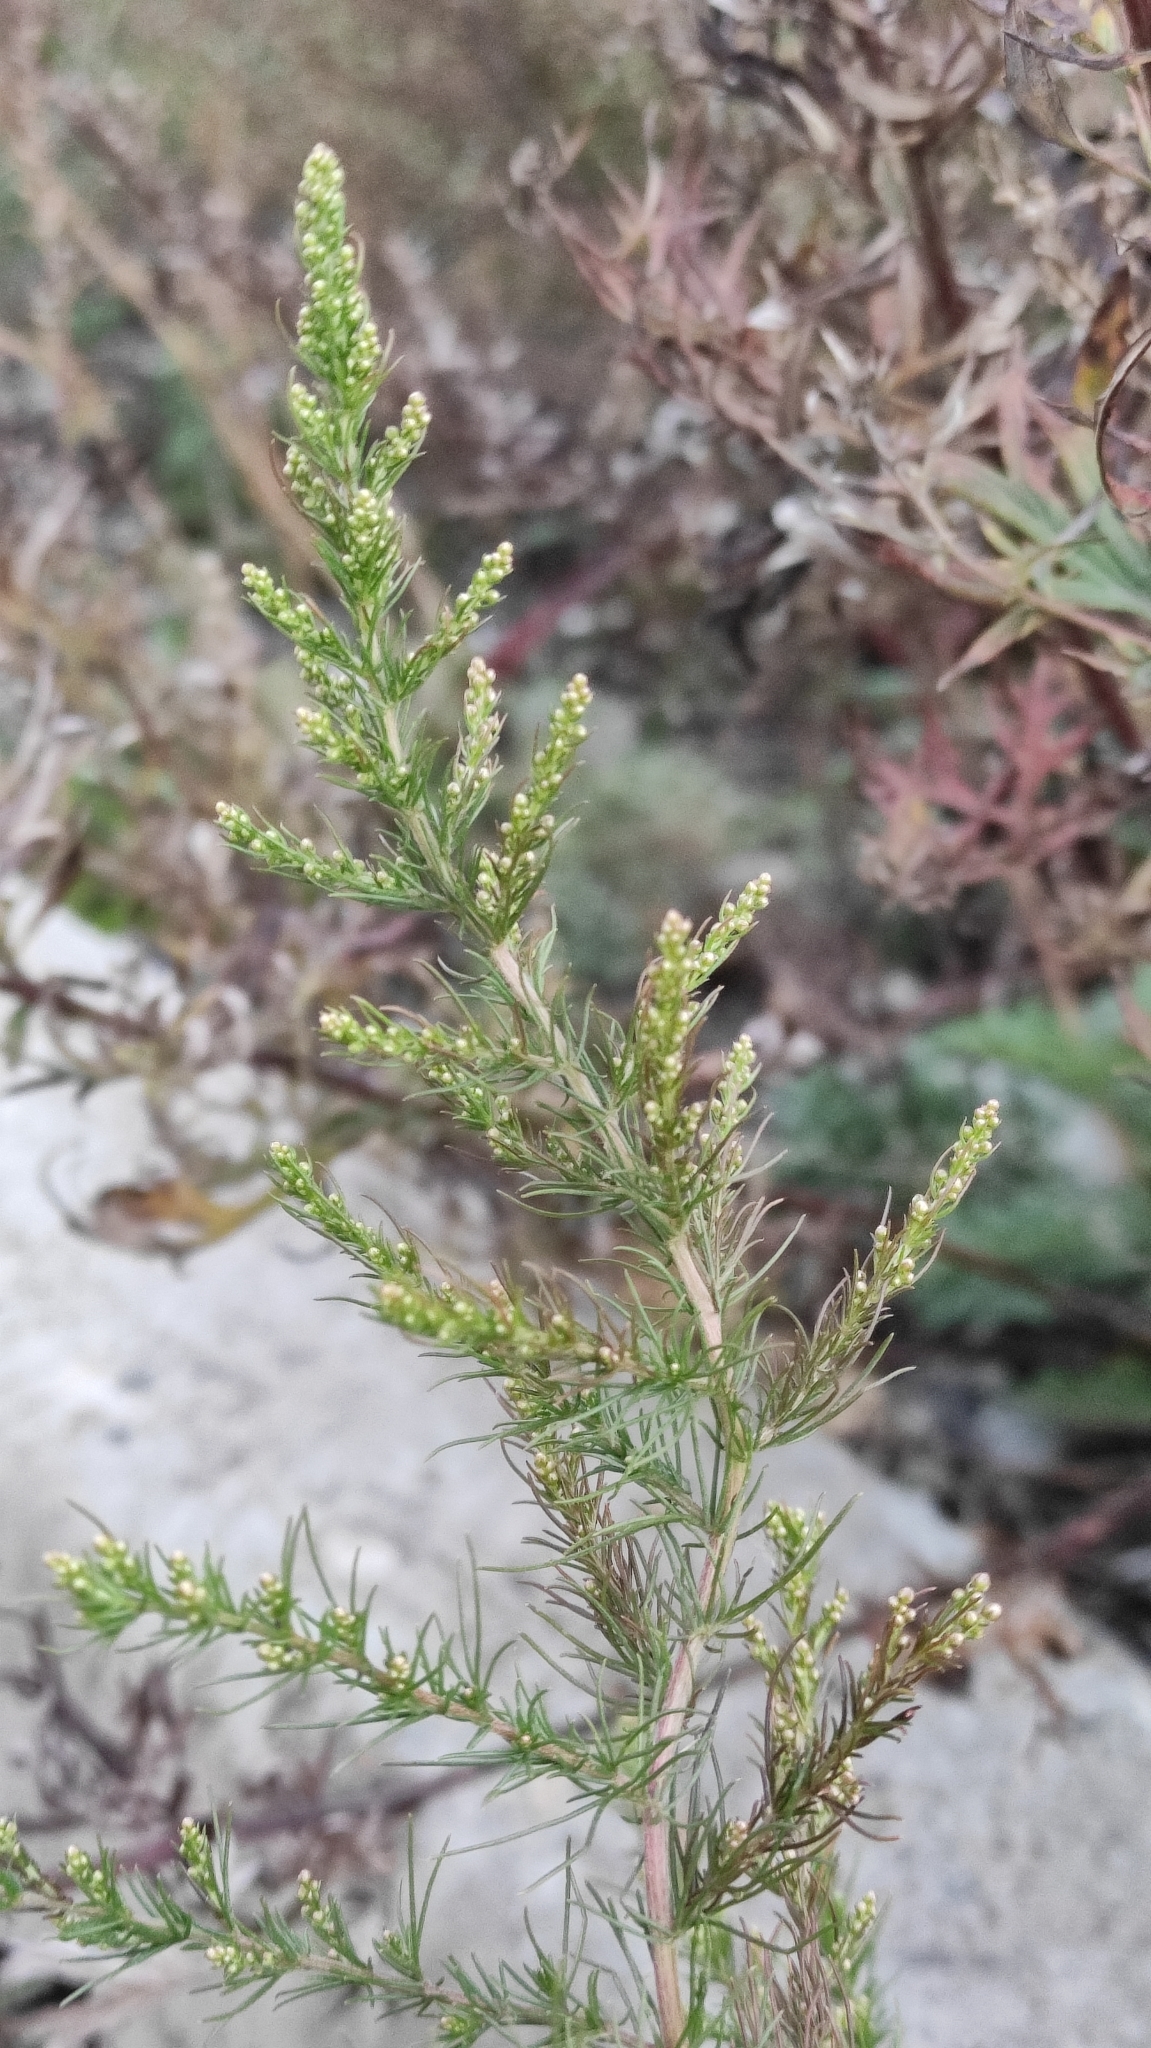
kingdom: Plantae
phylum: Tracheophyta
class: Magnoliopsida
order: Asterales
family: Asteraceae
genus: Artemisia
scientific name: Artemisia scoparia
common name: Redstem wormwood
